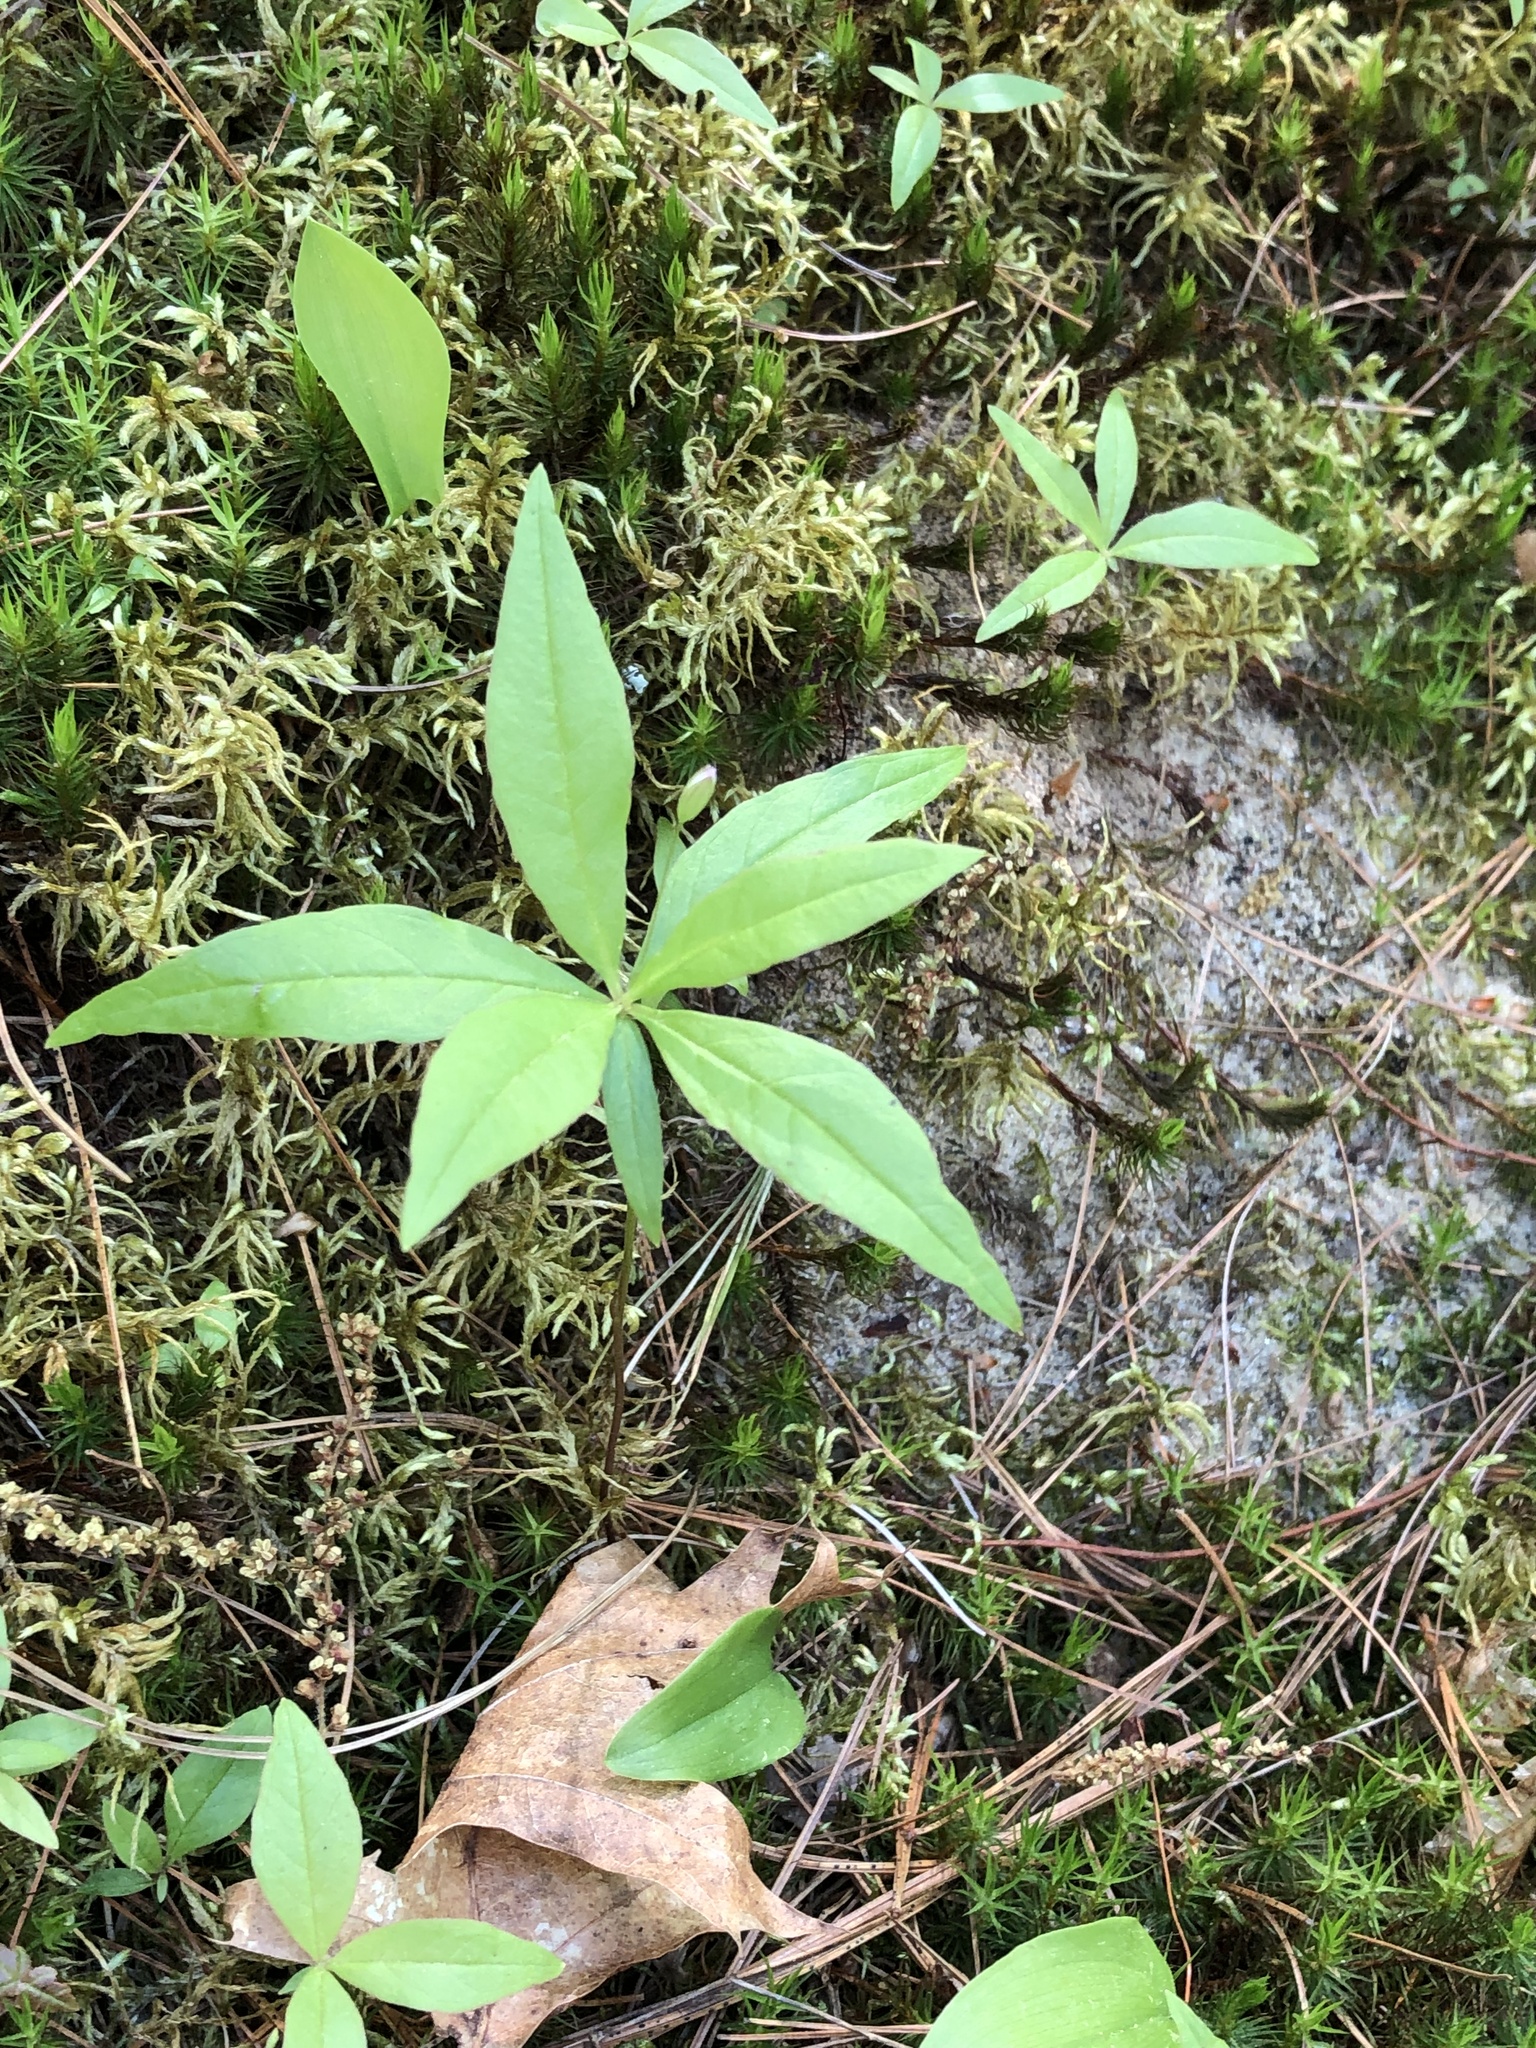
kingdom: Plantae
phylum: Tracheophyta
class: Magnoliopsida
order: Ericales
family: Primulaceae
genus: Lysimachia
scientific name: Lysimachia borealis
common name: American starflower
